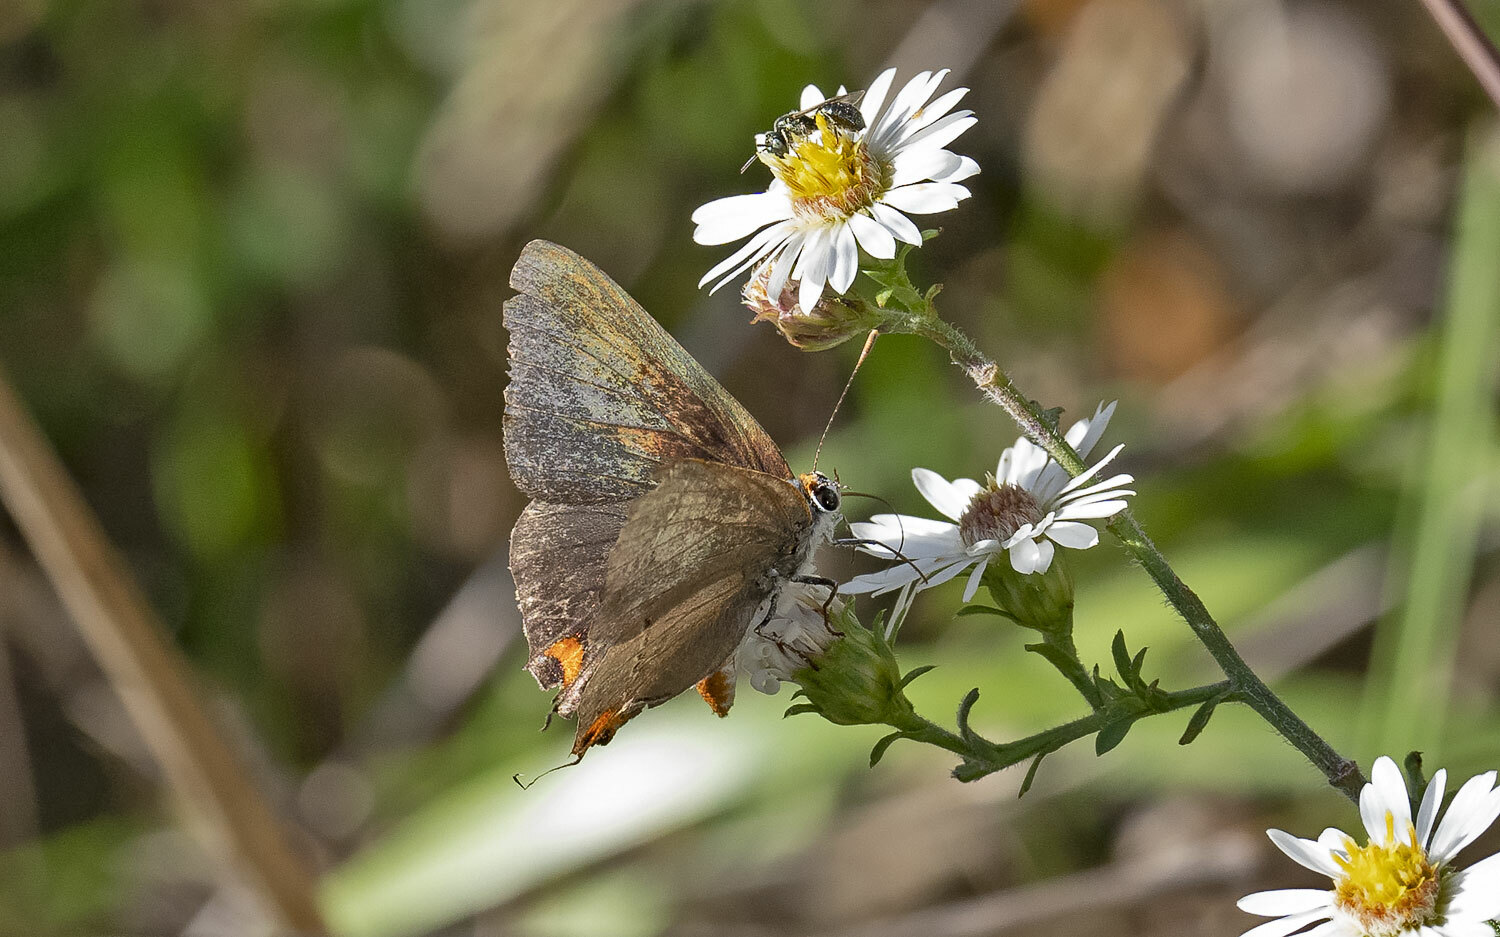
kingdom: Animalia
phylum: Arthropoda
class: Insecta
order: Lepidoptera
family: Lycaenidae
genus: Strymon
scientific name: Strymon melinus
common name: Gray hairstreak
